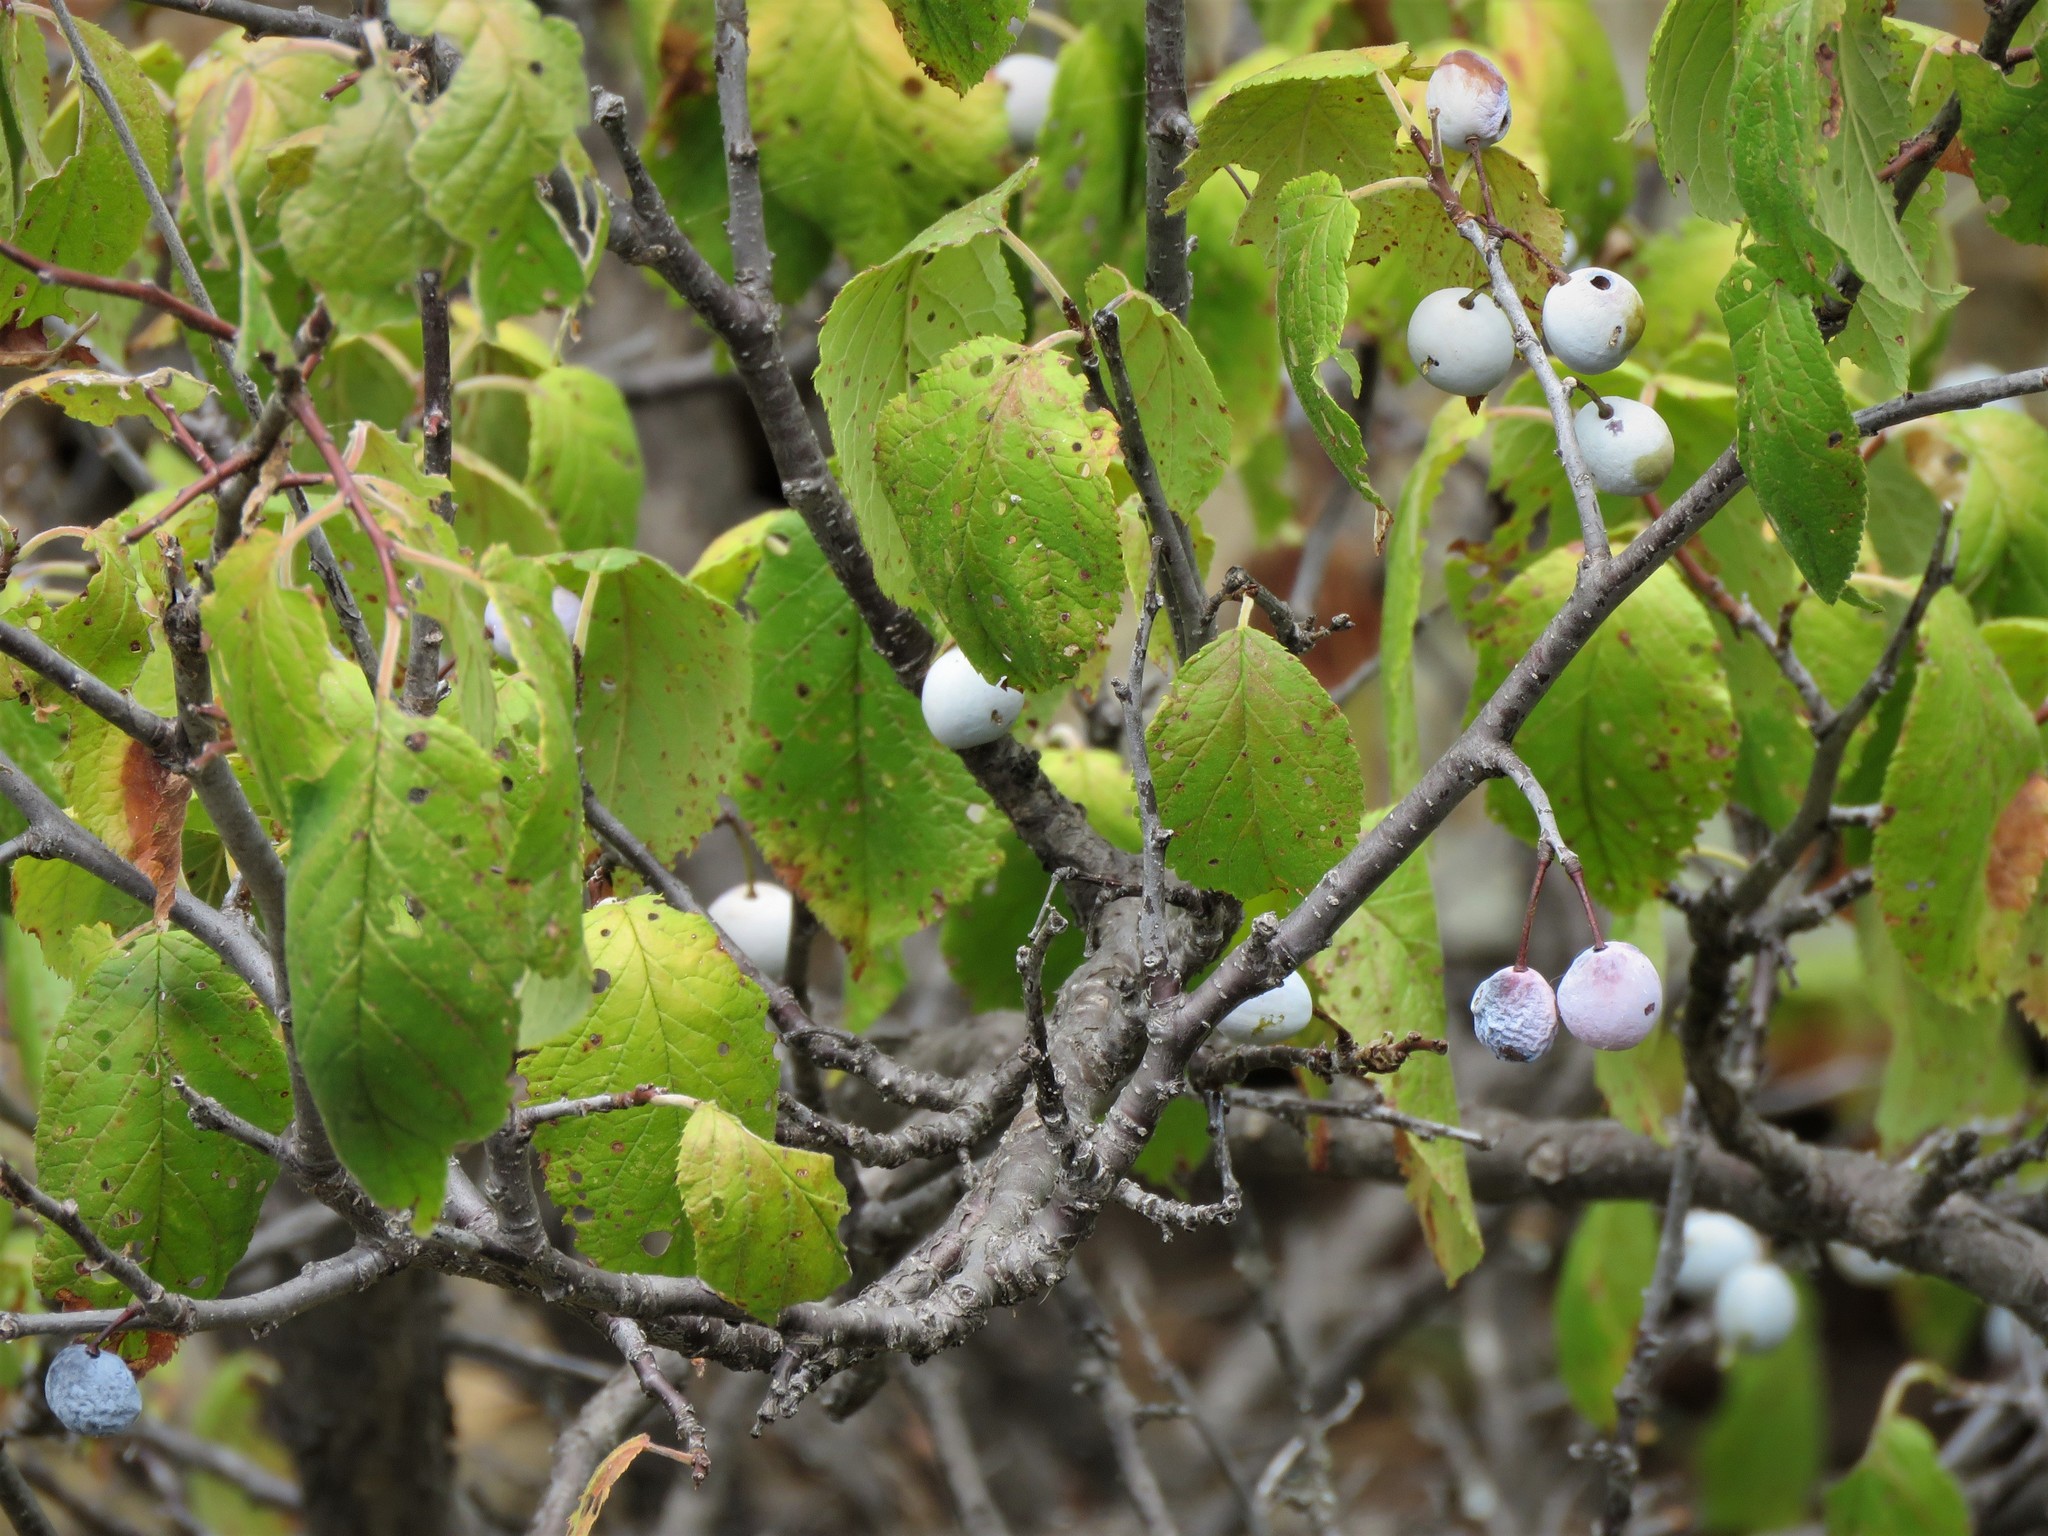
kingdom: Plantae
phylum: Tracheophyta
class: Magnoliopsida
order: Rosales
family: Rosaceae
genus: Prunus
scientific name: Prunus mexicana
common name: Mexican plum
